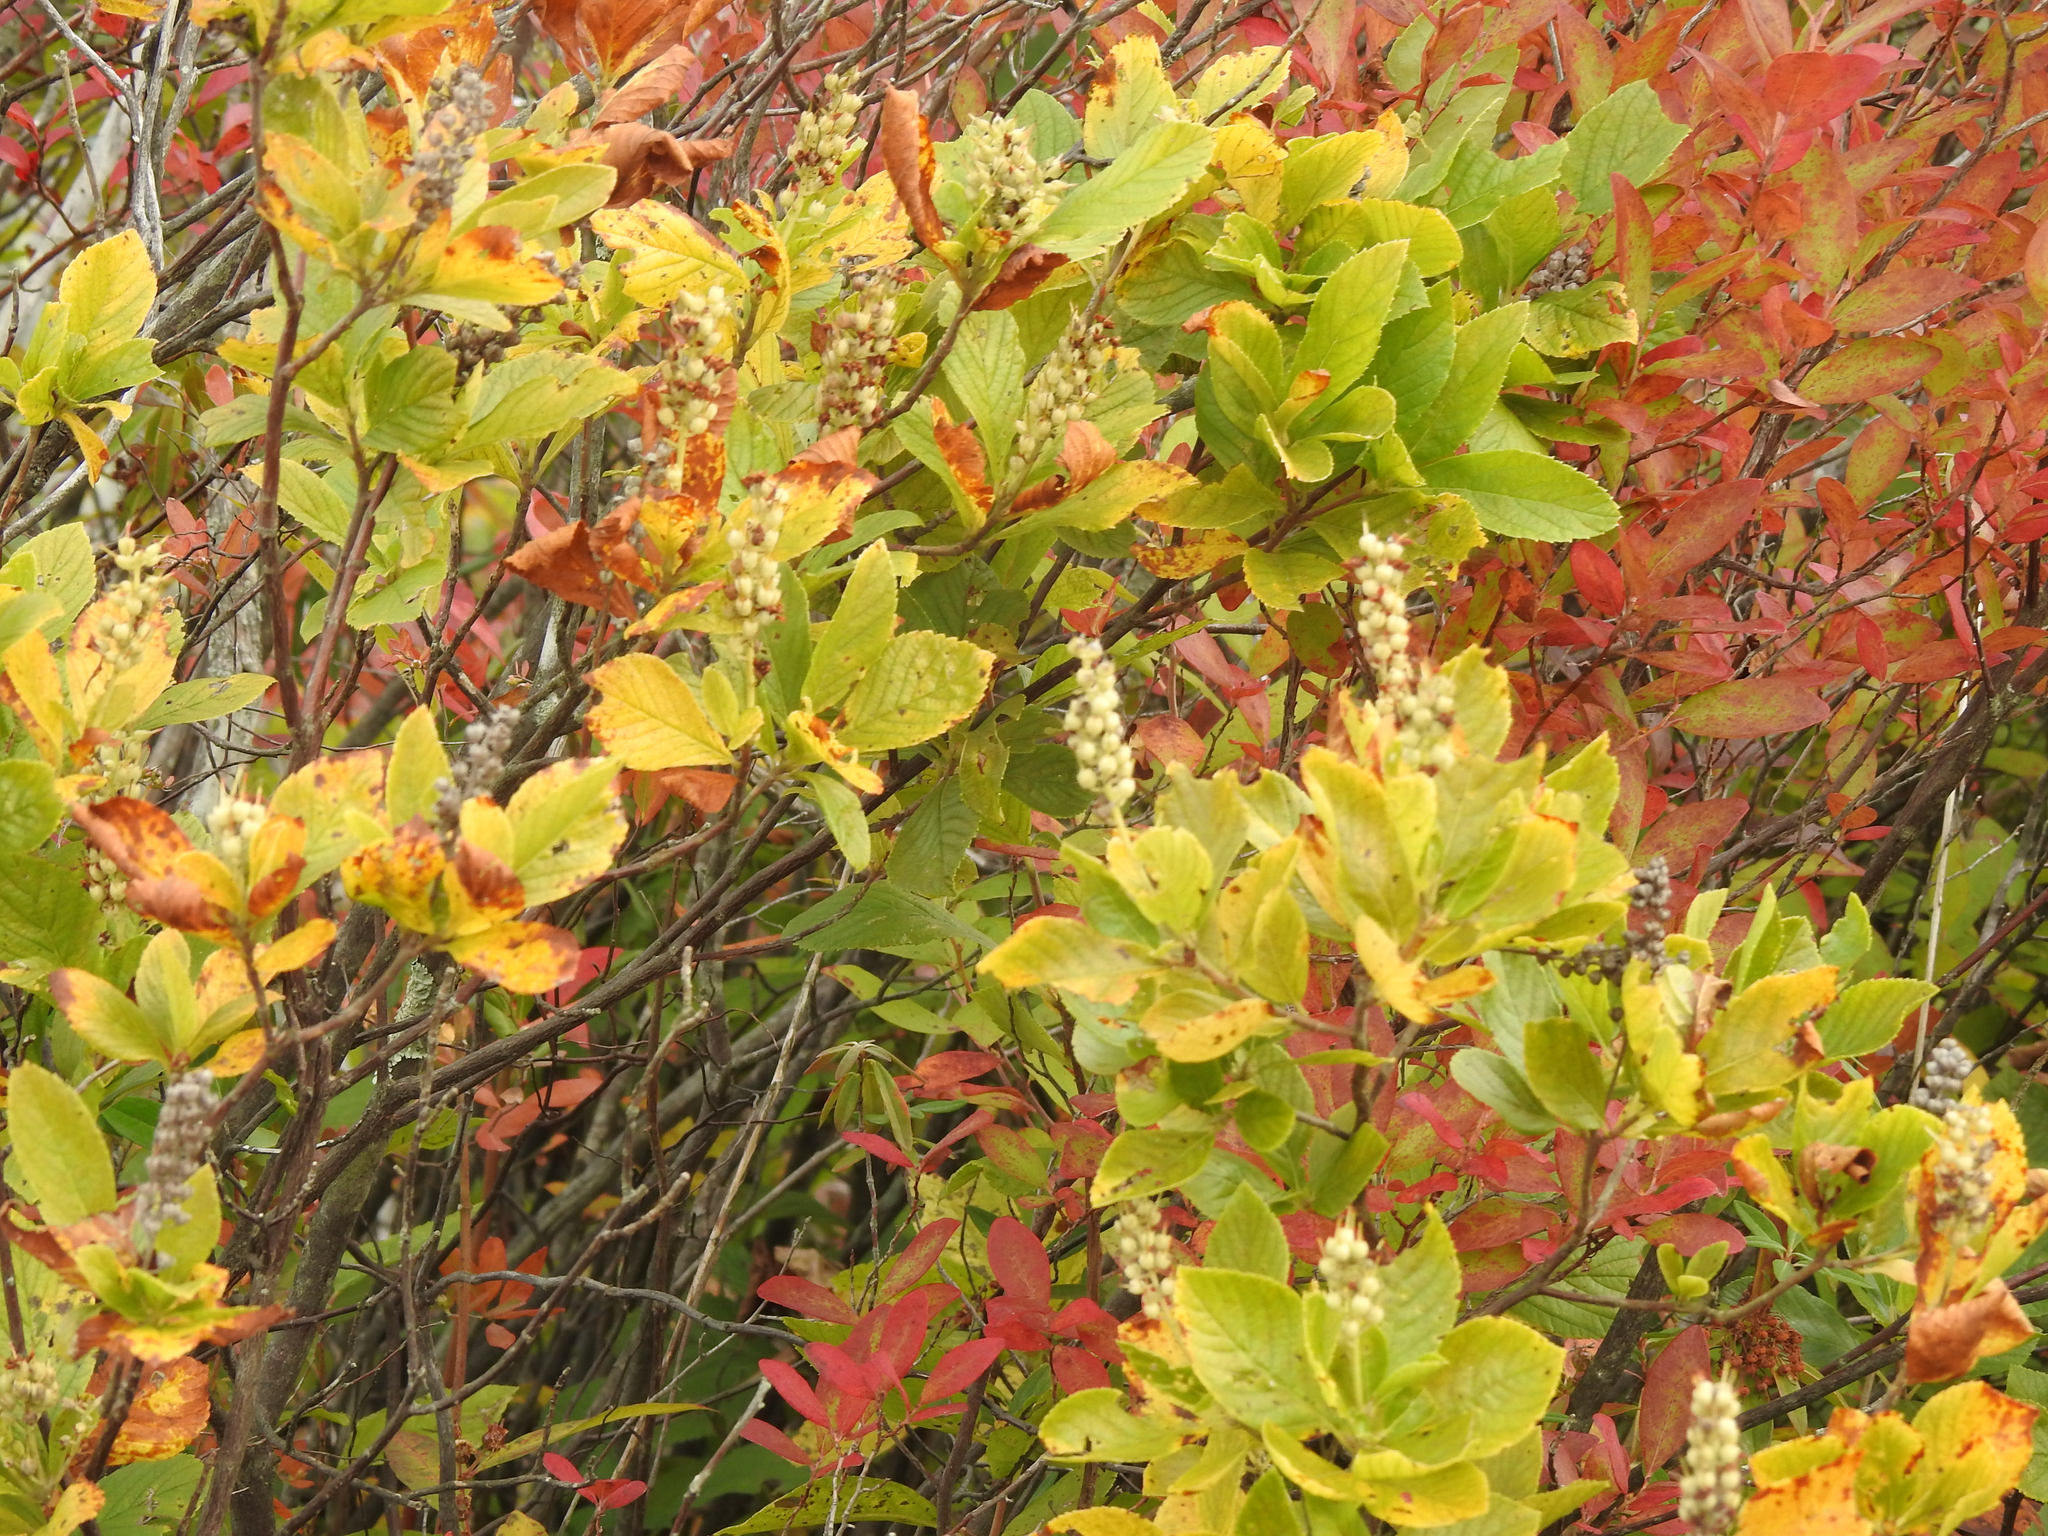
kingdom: Plantae
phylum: Tracheophyta
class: Magnoliopsida
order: Ericales
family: Clethraceae
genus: Clethra
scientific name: Clethra alnifolia
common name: Sweet pepperbush
